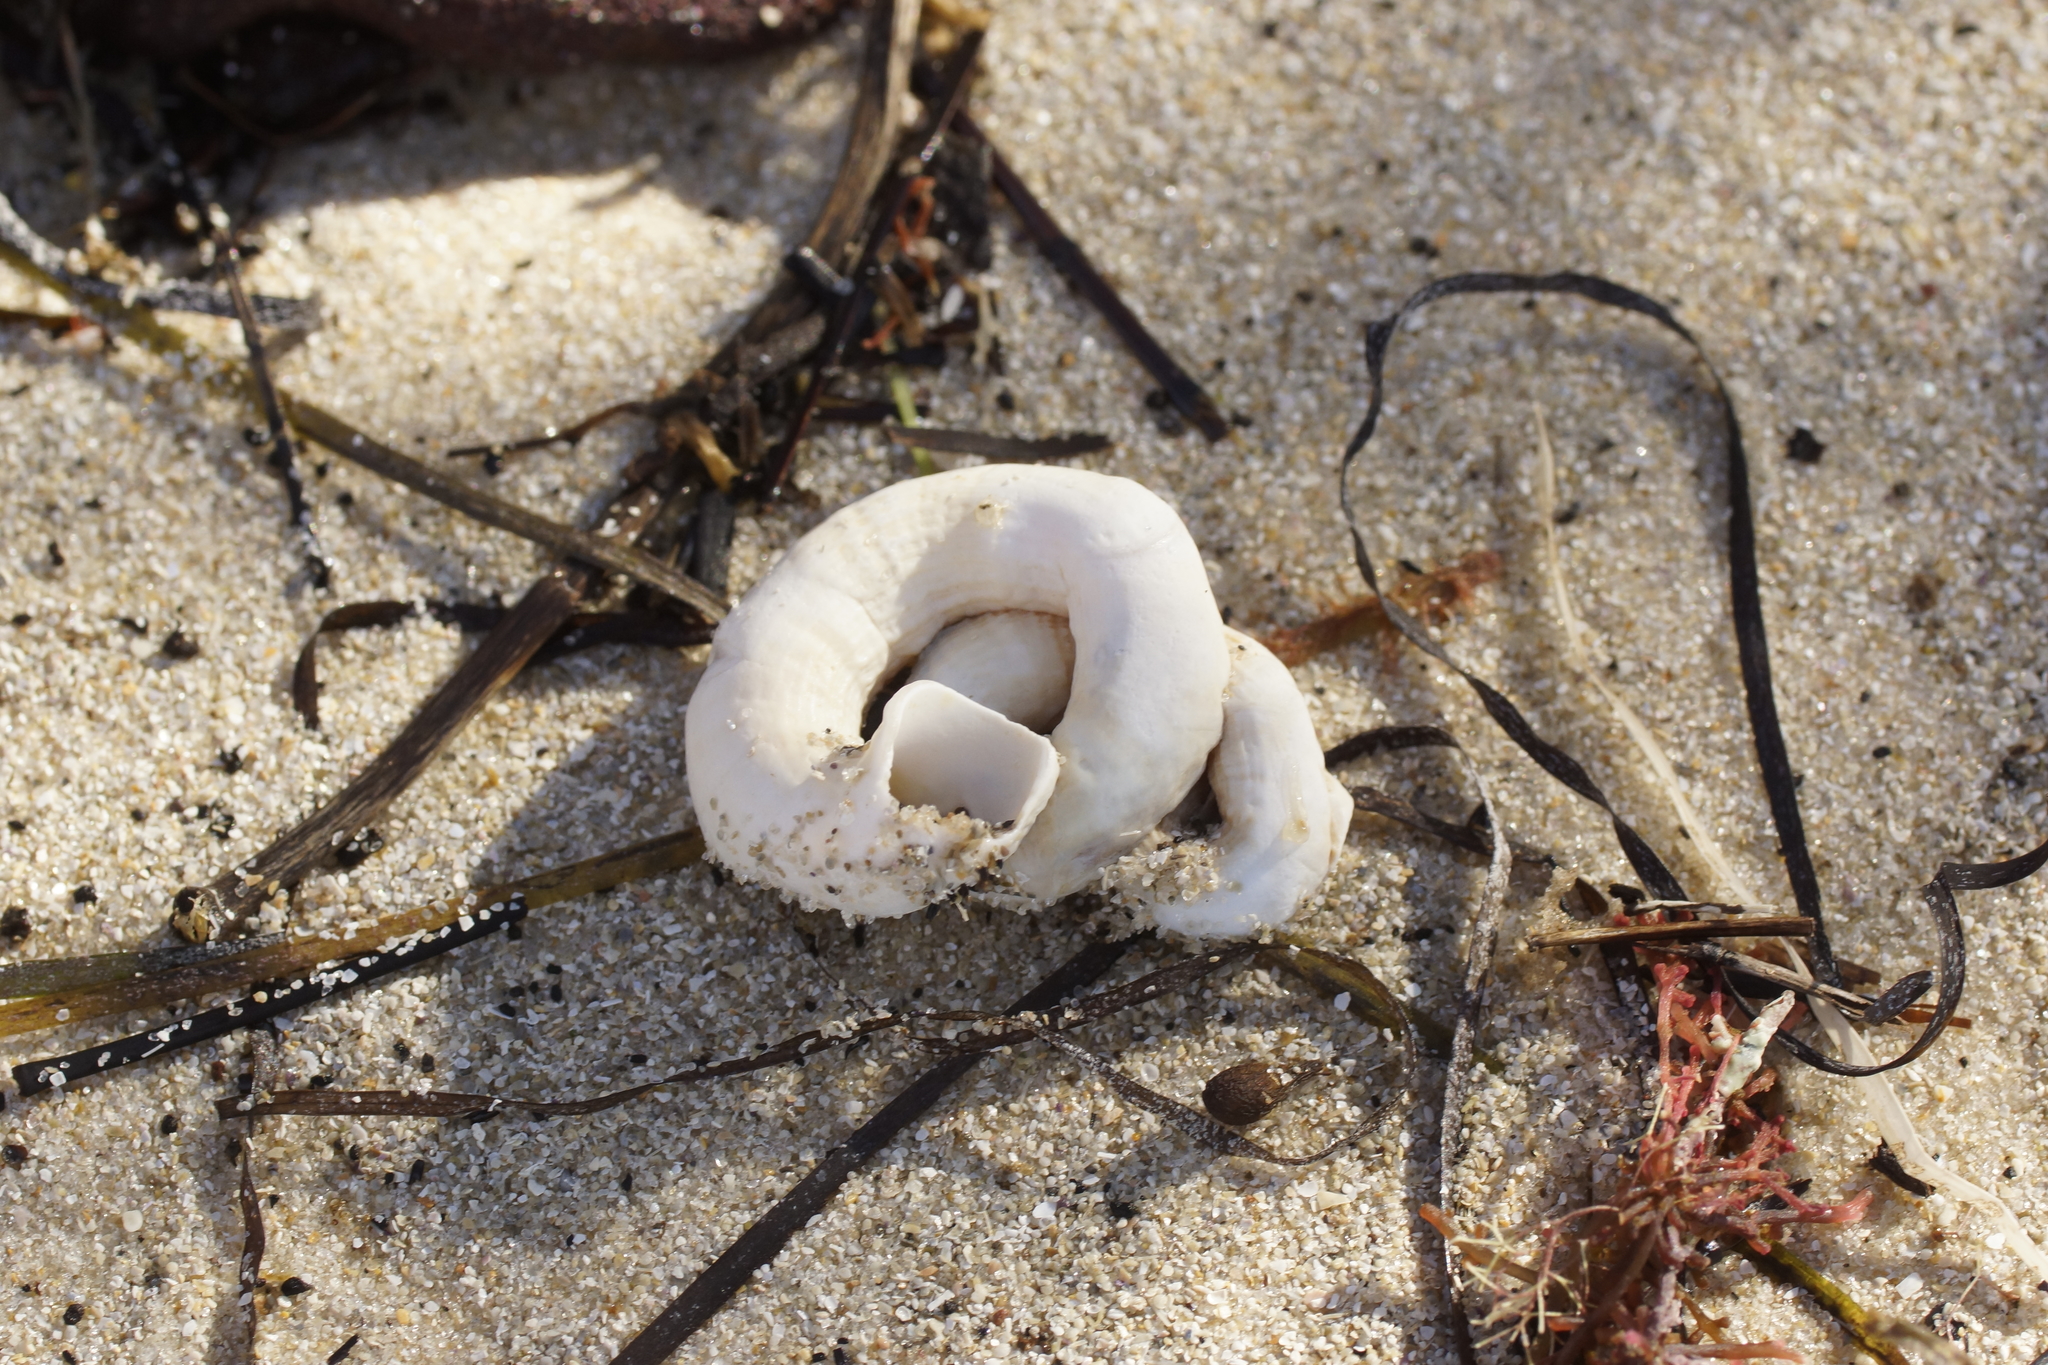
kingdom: Animalia
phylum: Mollusca
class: Gastropoda
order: Littorinimorpha
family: Vermetidae
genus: Thylacodes
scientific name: Thylacodes sipho
